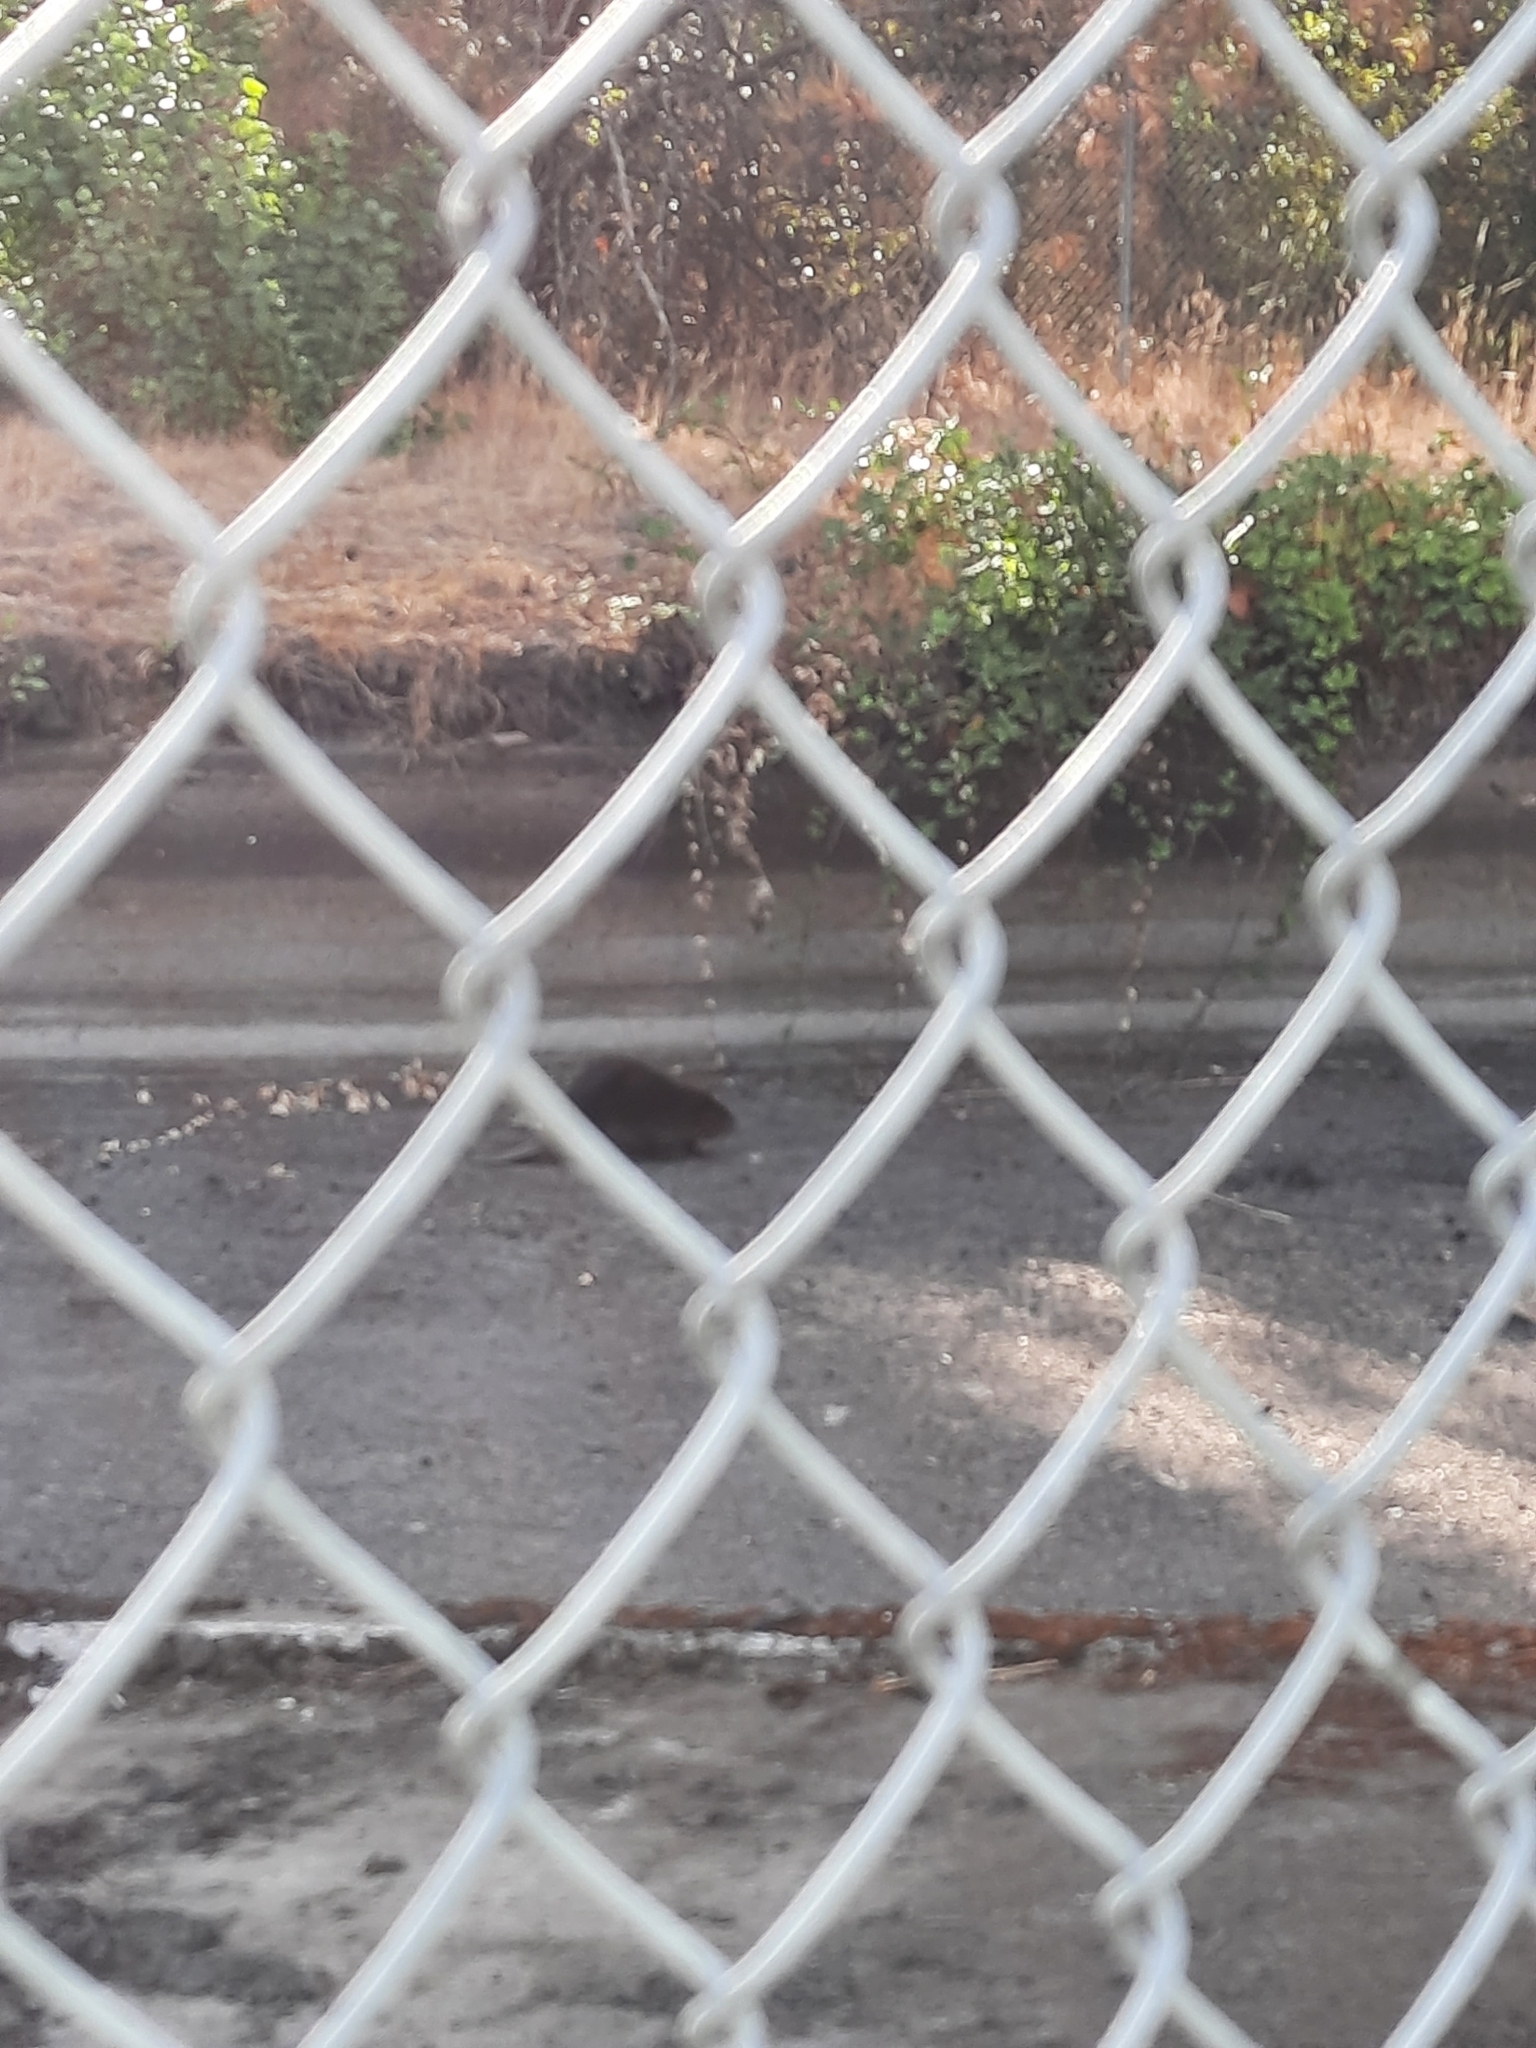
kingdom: Animalia
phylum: Chordata
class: Mammalia
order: Rodentia
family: Castoridae
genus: Castor
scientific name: Castor canadensis
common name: American beaver
